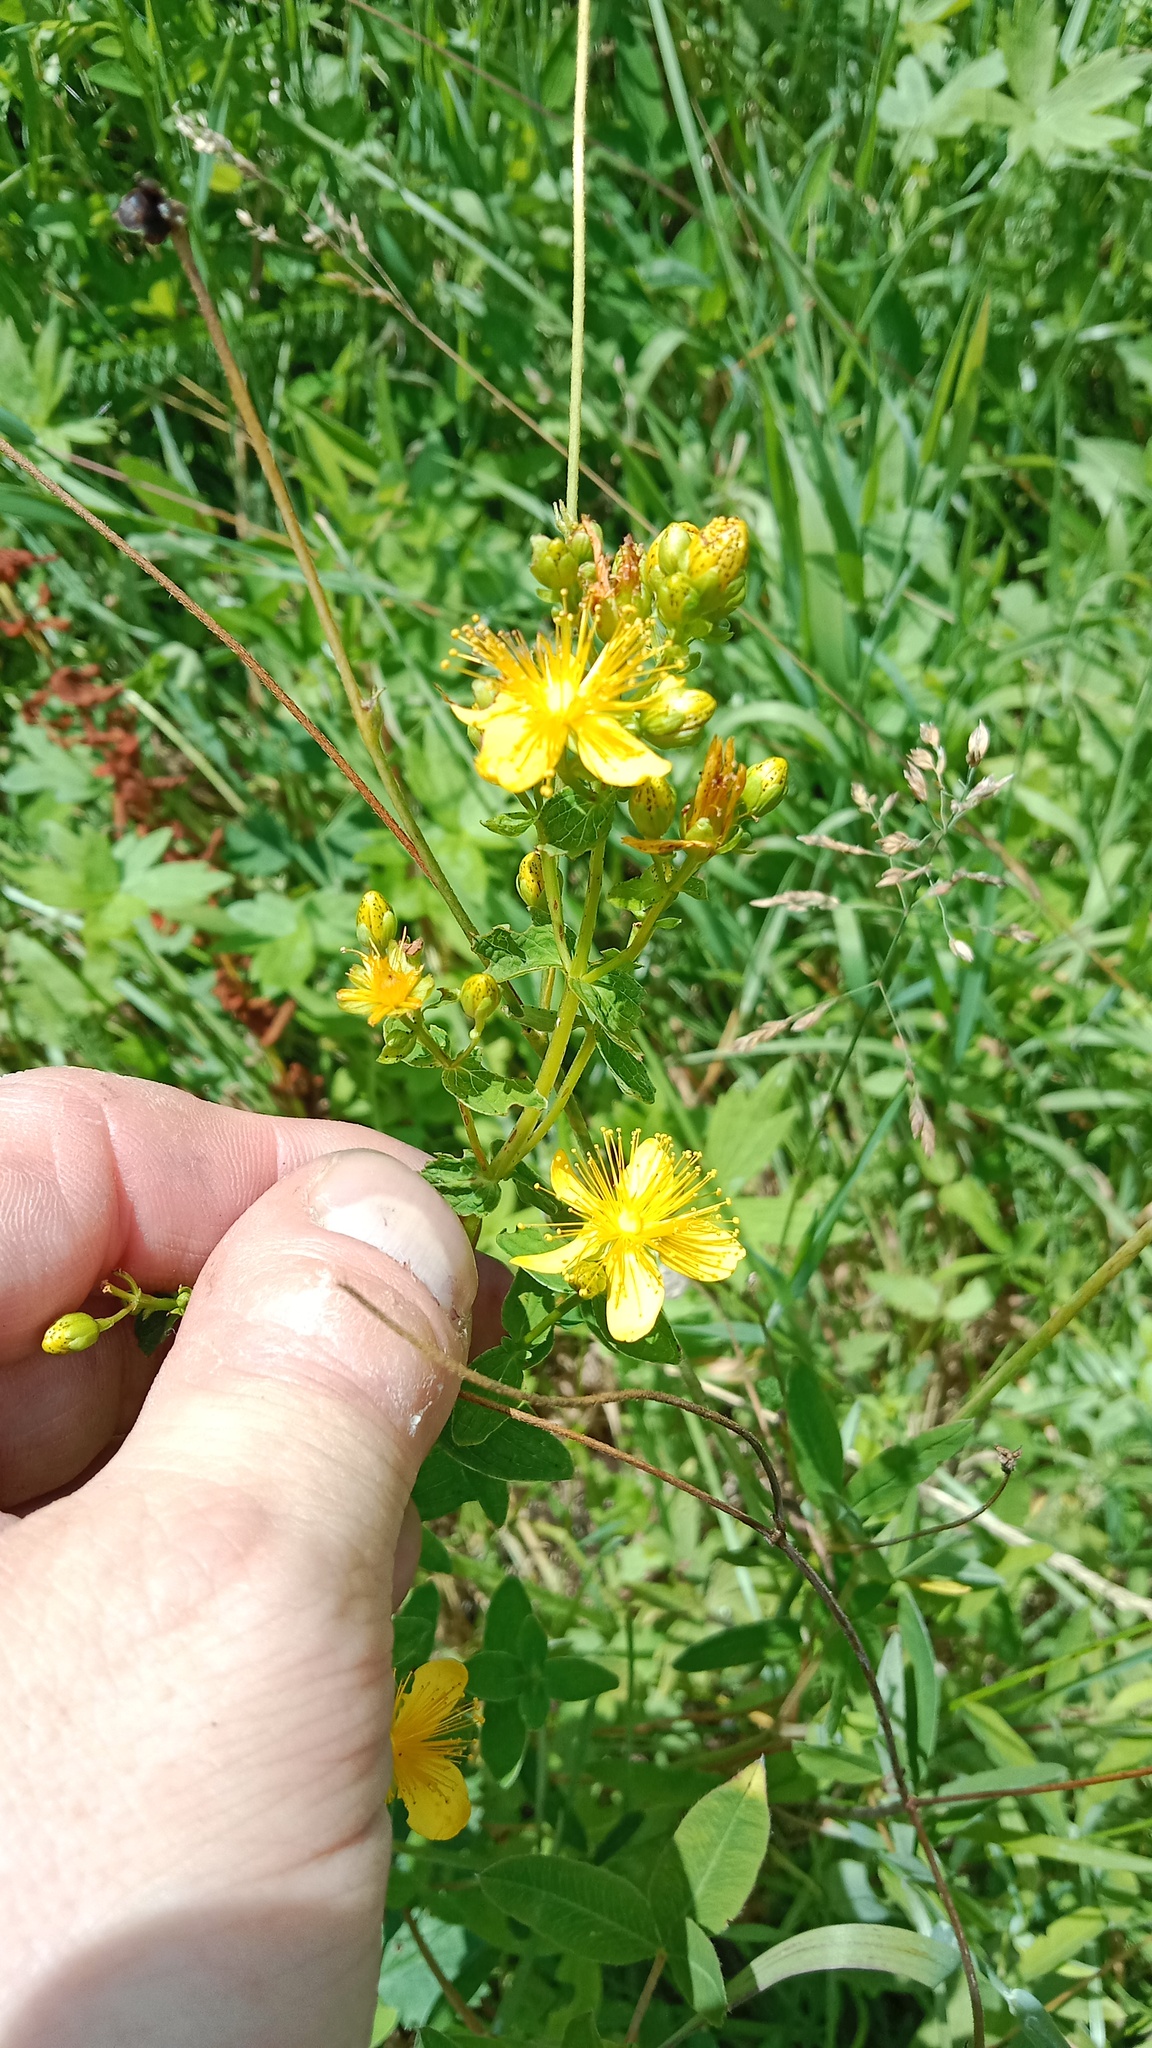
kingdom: Plantae
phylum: Tracheophyta
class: Magnoliopsida
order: Malpighiales
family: Hypericaceae
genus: Hypericum
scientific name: Hypericum maculatum
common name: Imperforate st. john's-wort
